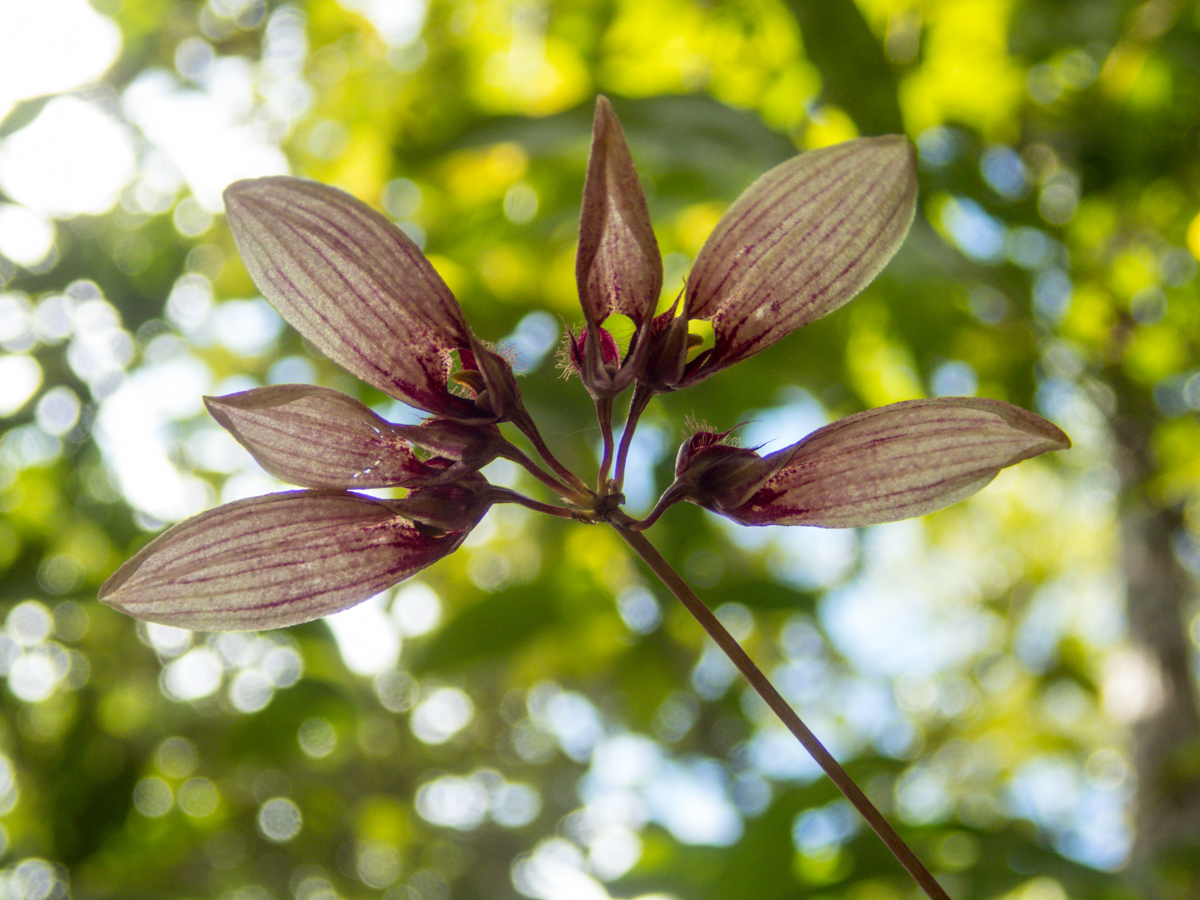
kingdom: Plantae
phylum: Tracheophyta
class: Liliopsida
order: Asparagales
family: Orchidaceae
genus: Bulbophyllum
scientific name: Bulbophyllum lepidum
